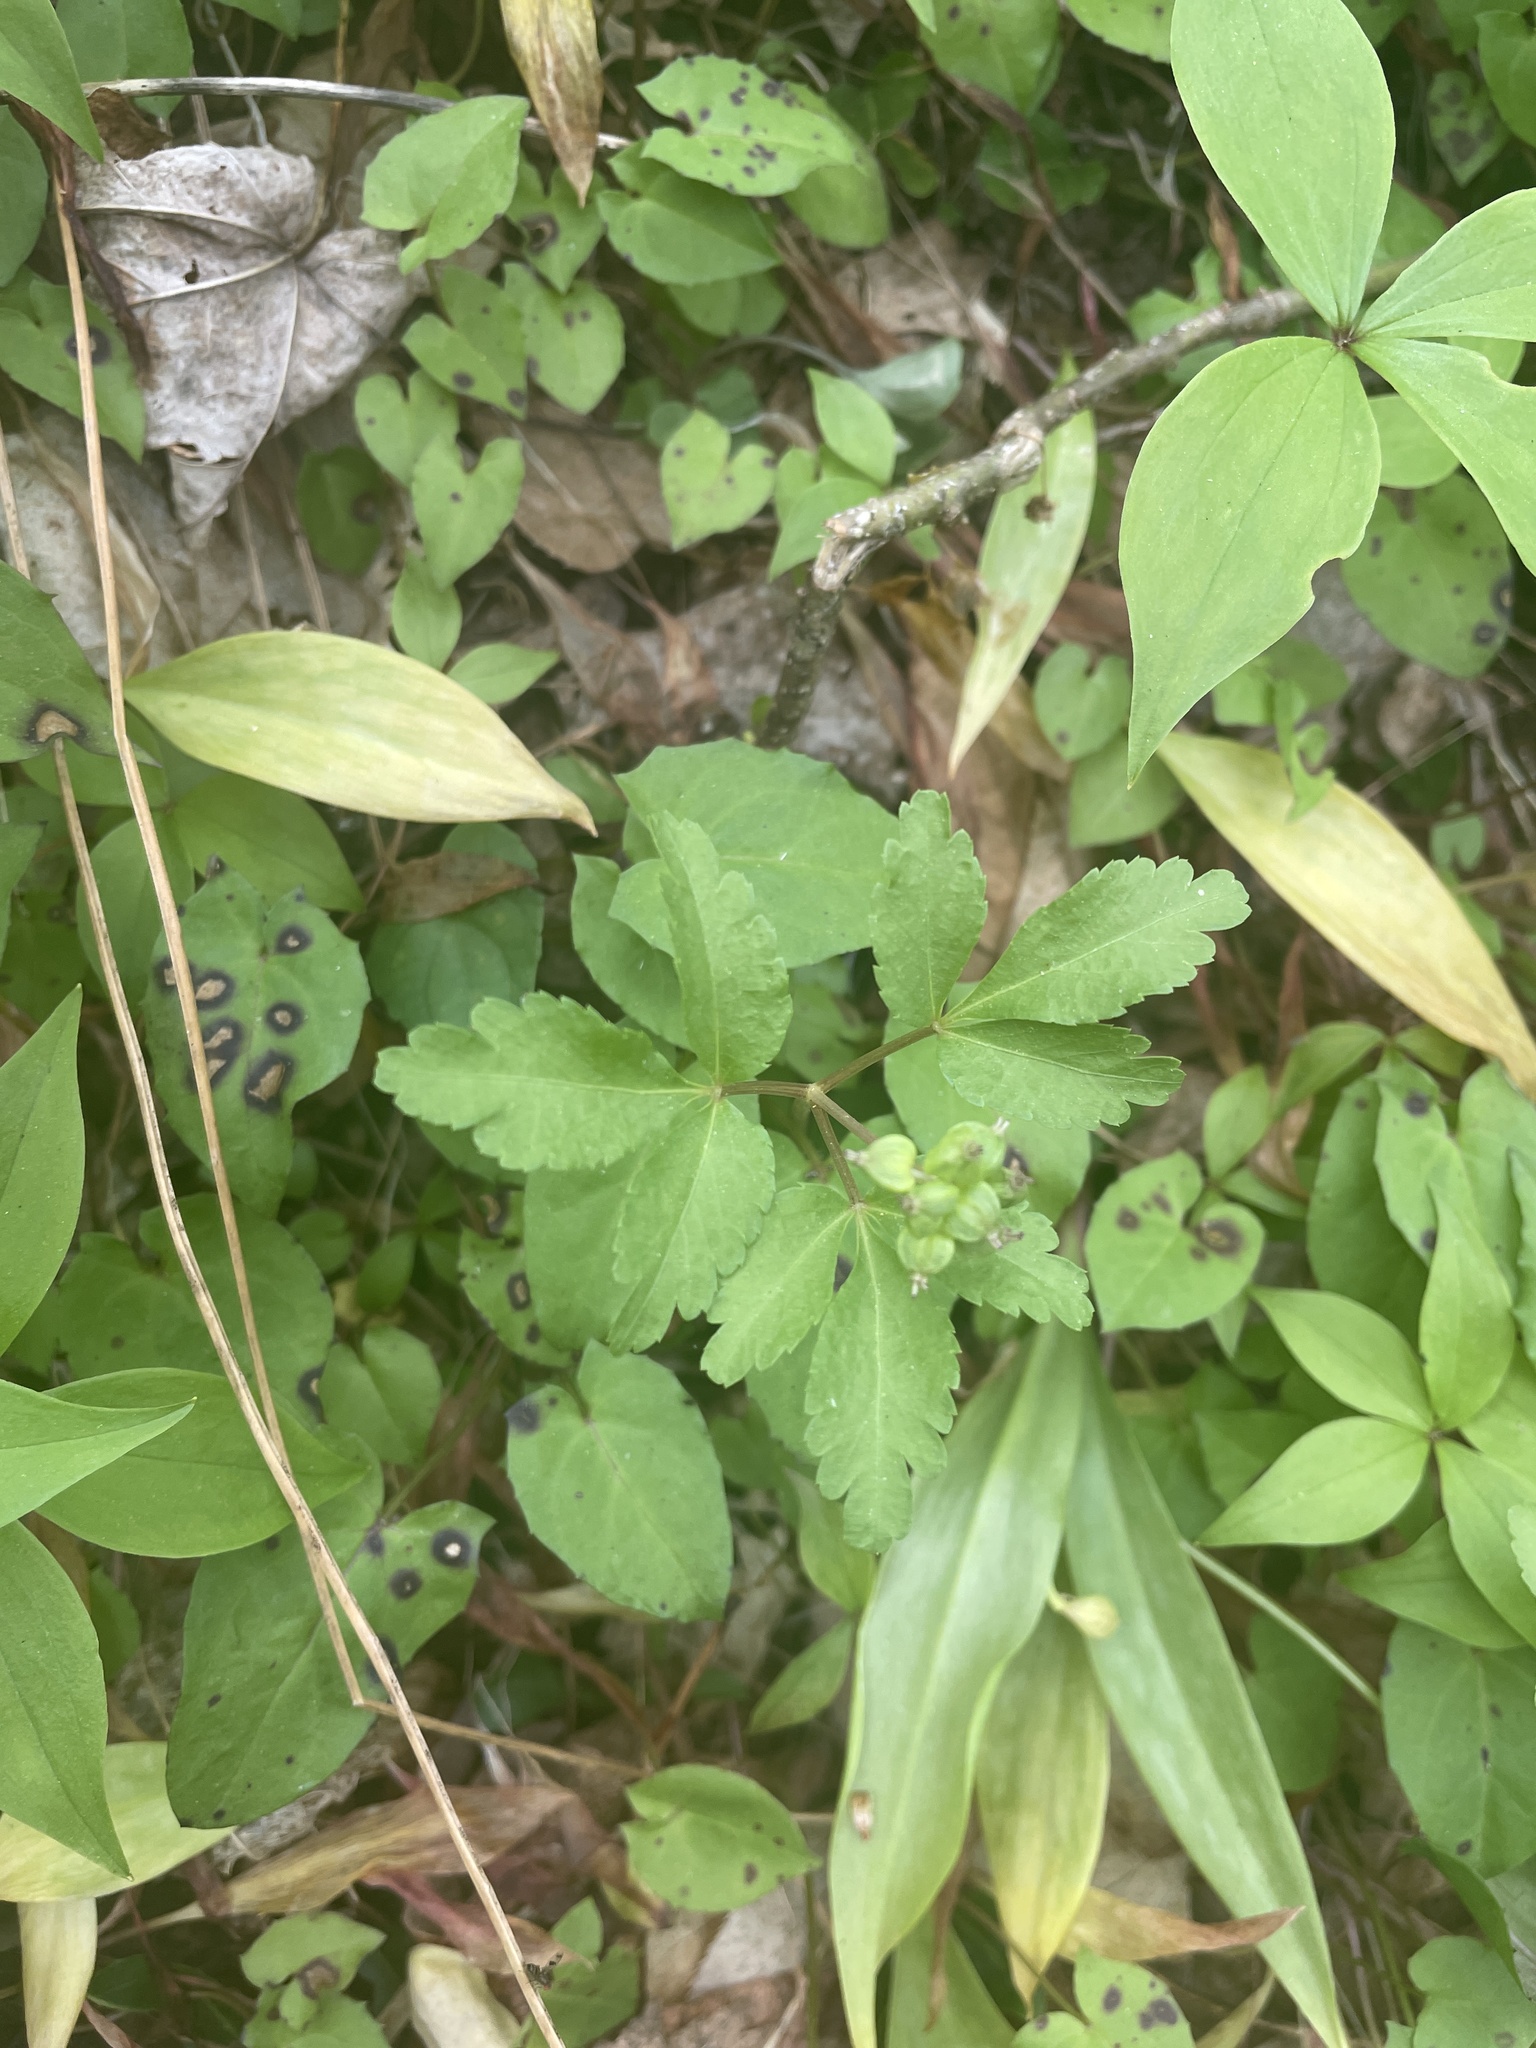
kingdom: Plantae
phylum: Tracheophyta
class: Magnoliopsida
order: Apiales
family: Araliaceae
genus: Panax
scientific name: Panax trifolius
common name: Dwarf ginseng
